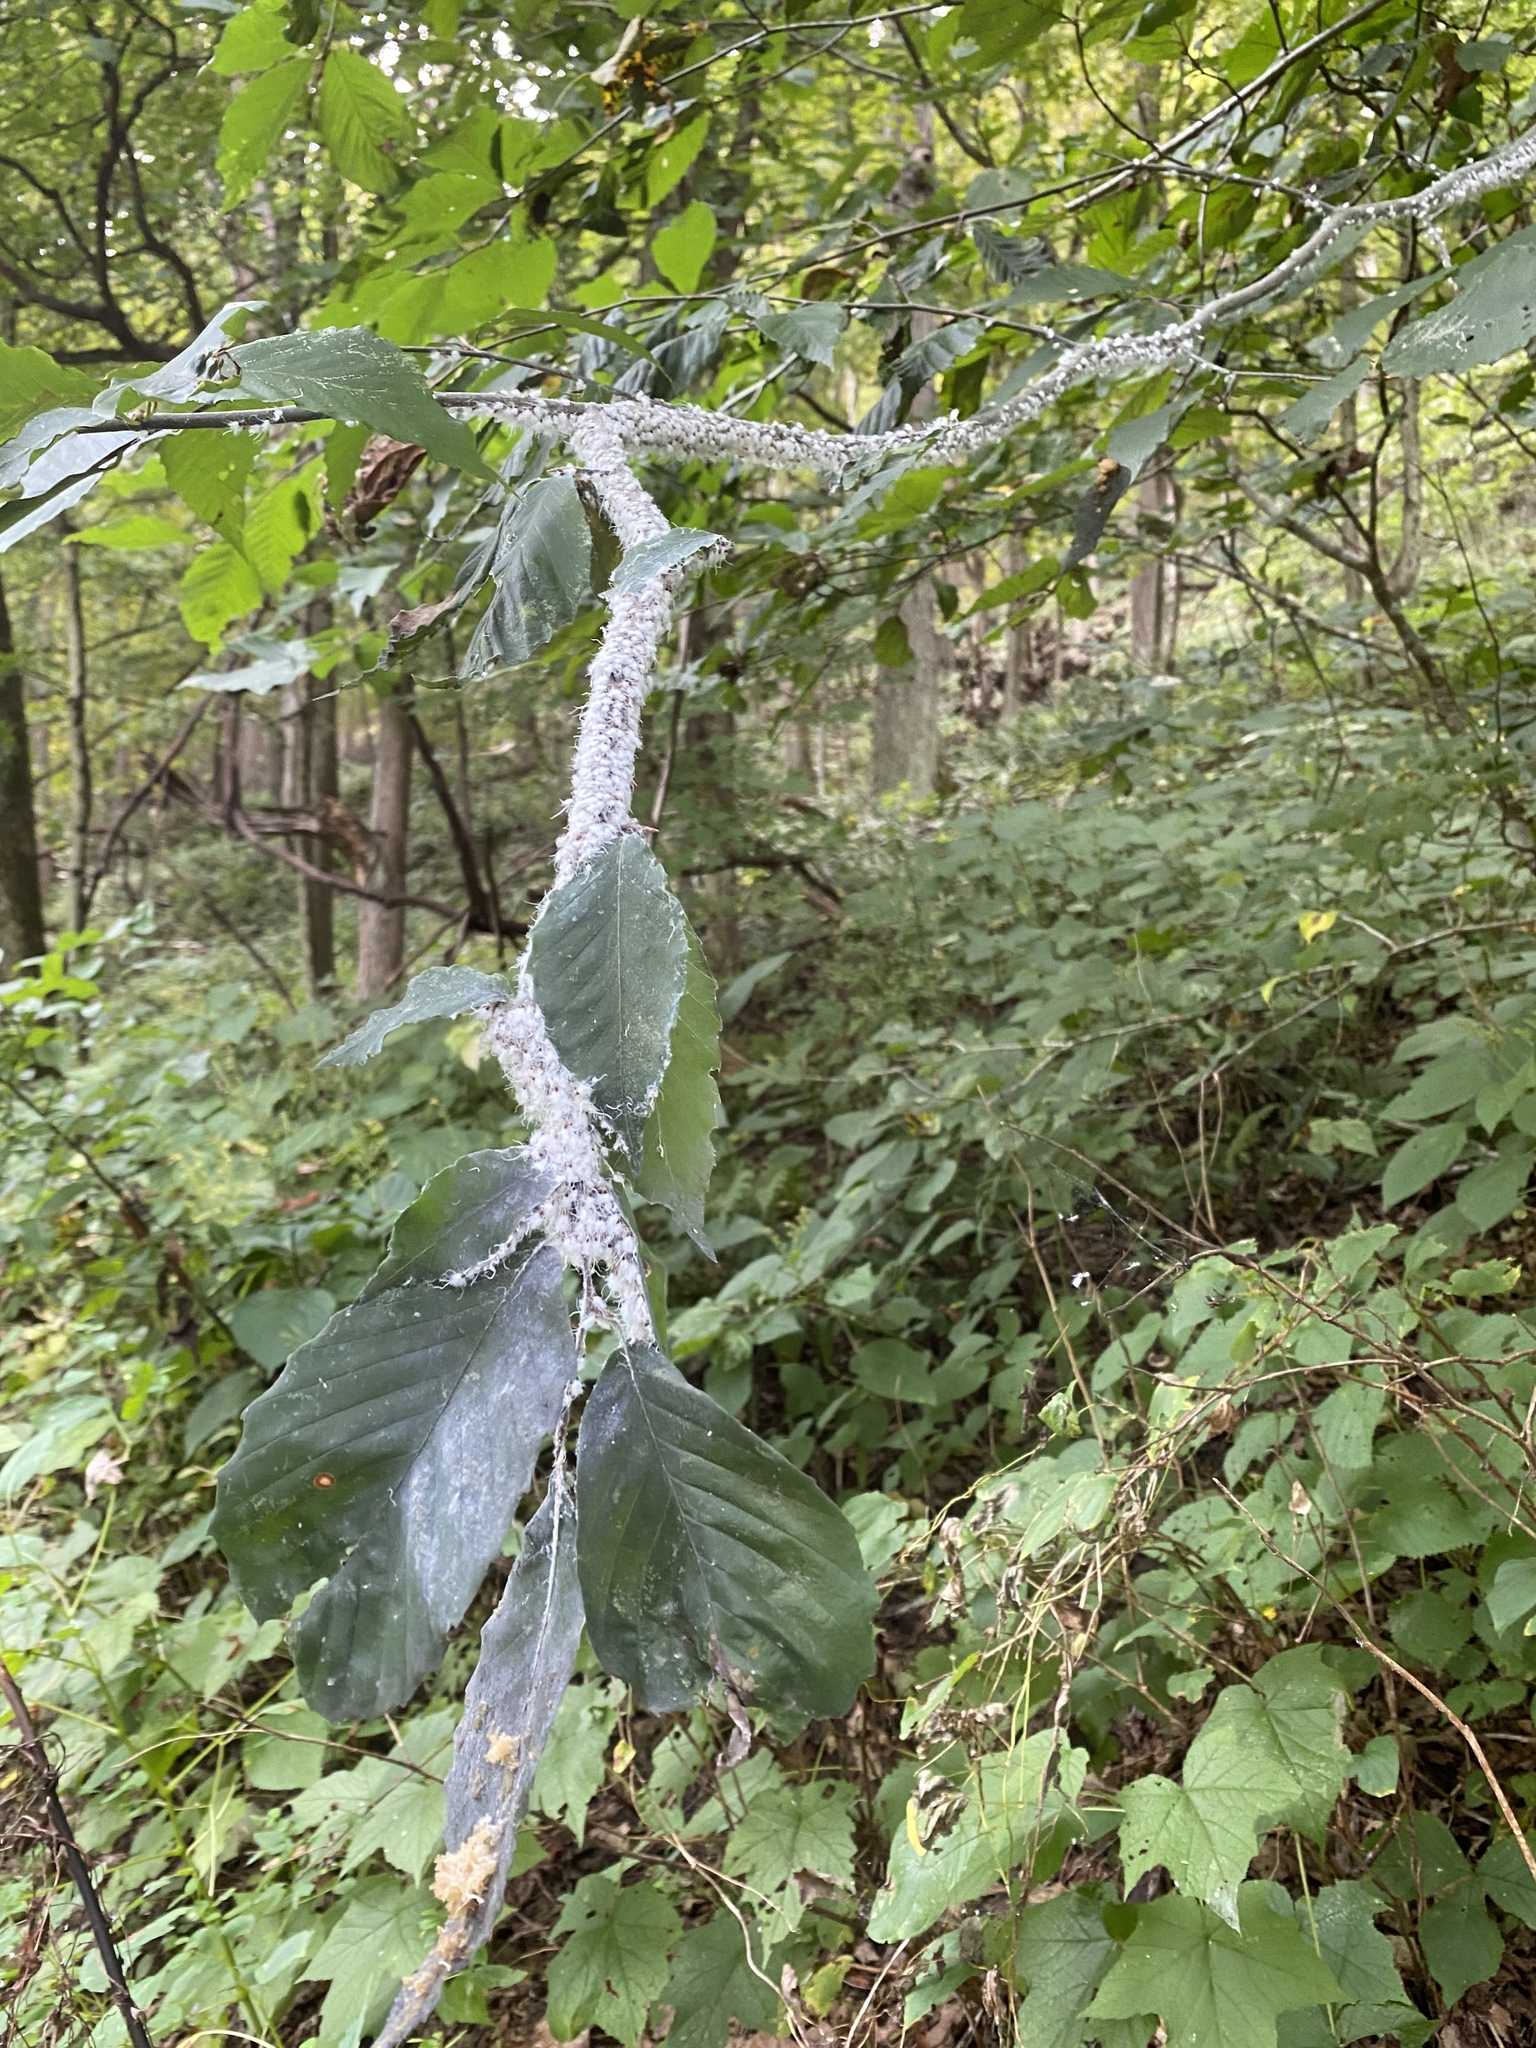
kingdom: Animalia
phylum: Arthropoda
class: Insecta
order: Hemiptera
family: Aphididae
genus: Grylloprociphilus
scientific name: Grylloprociphilus imbricator
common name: Beech blight aphid
